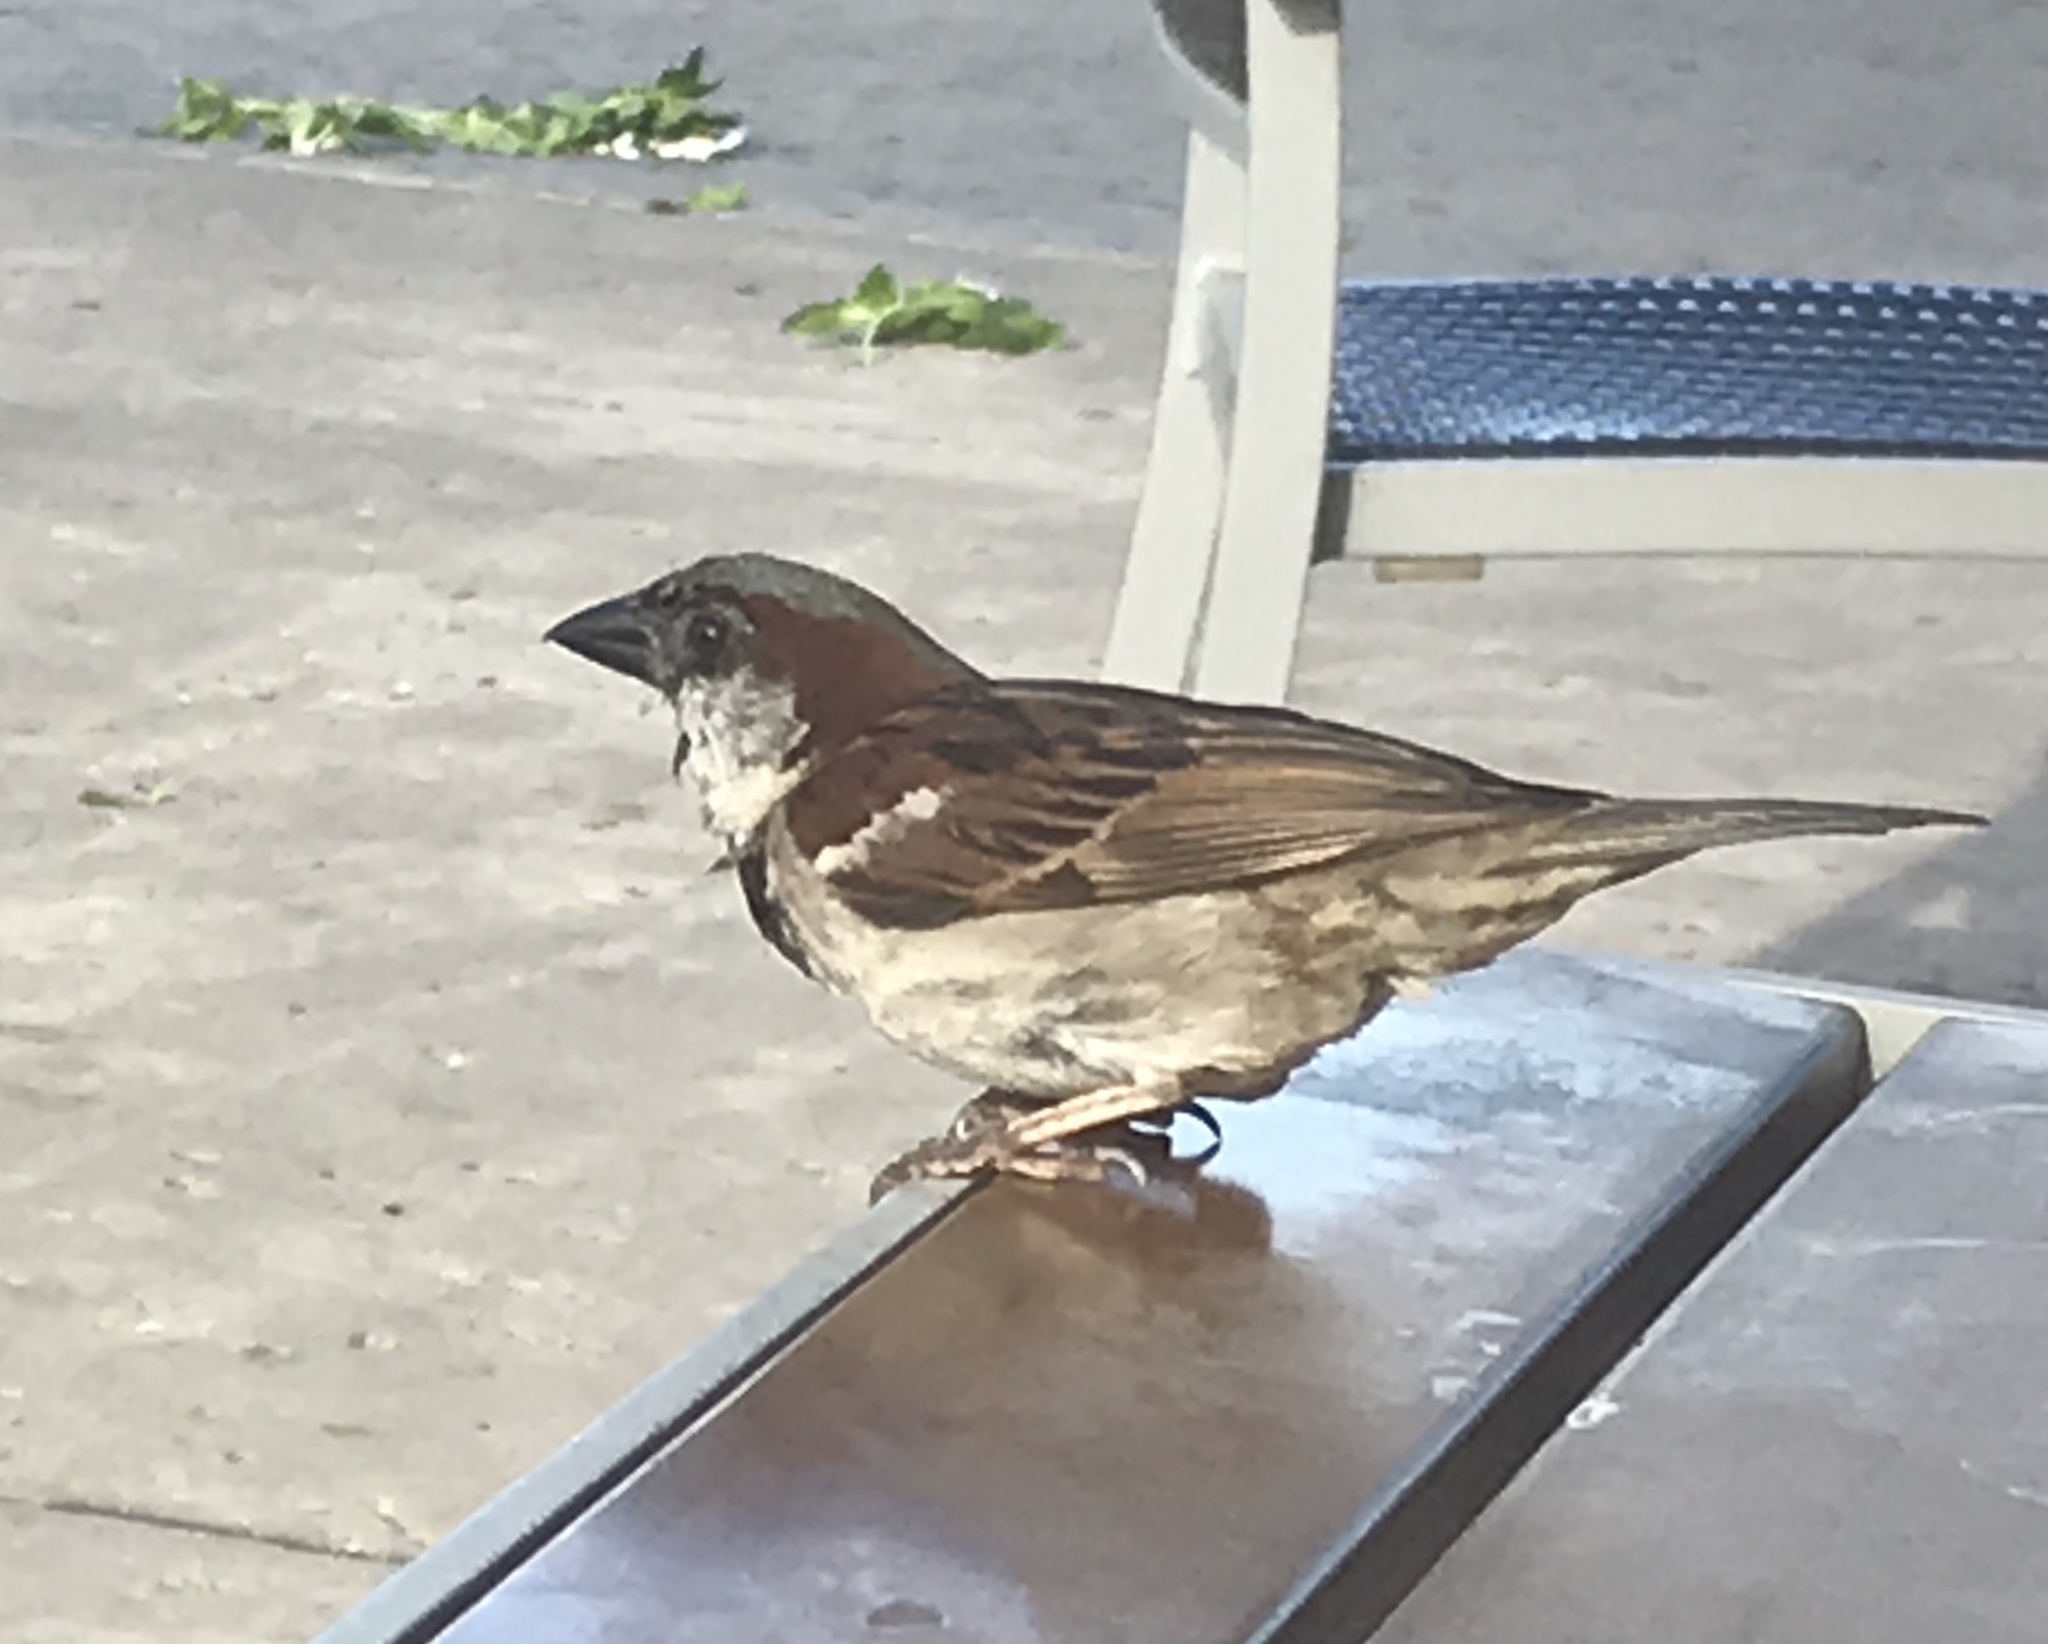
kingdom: Animalia
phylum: Chordata
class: Aves
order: Passeriformes
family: Passeridae
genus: Passer
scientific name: Passer domesticus
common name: House sparrow
